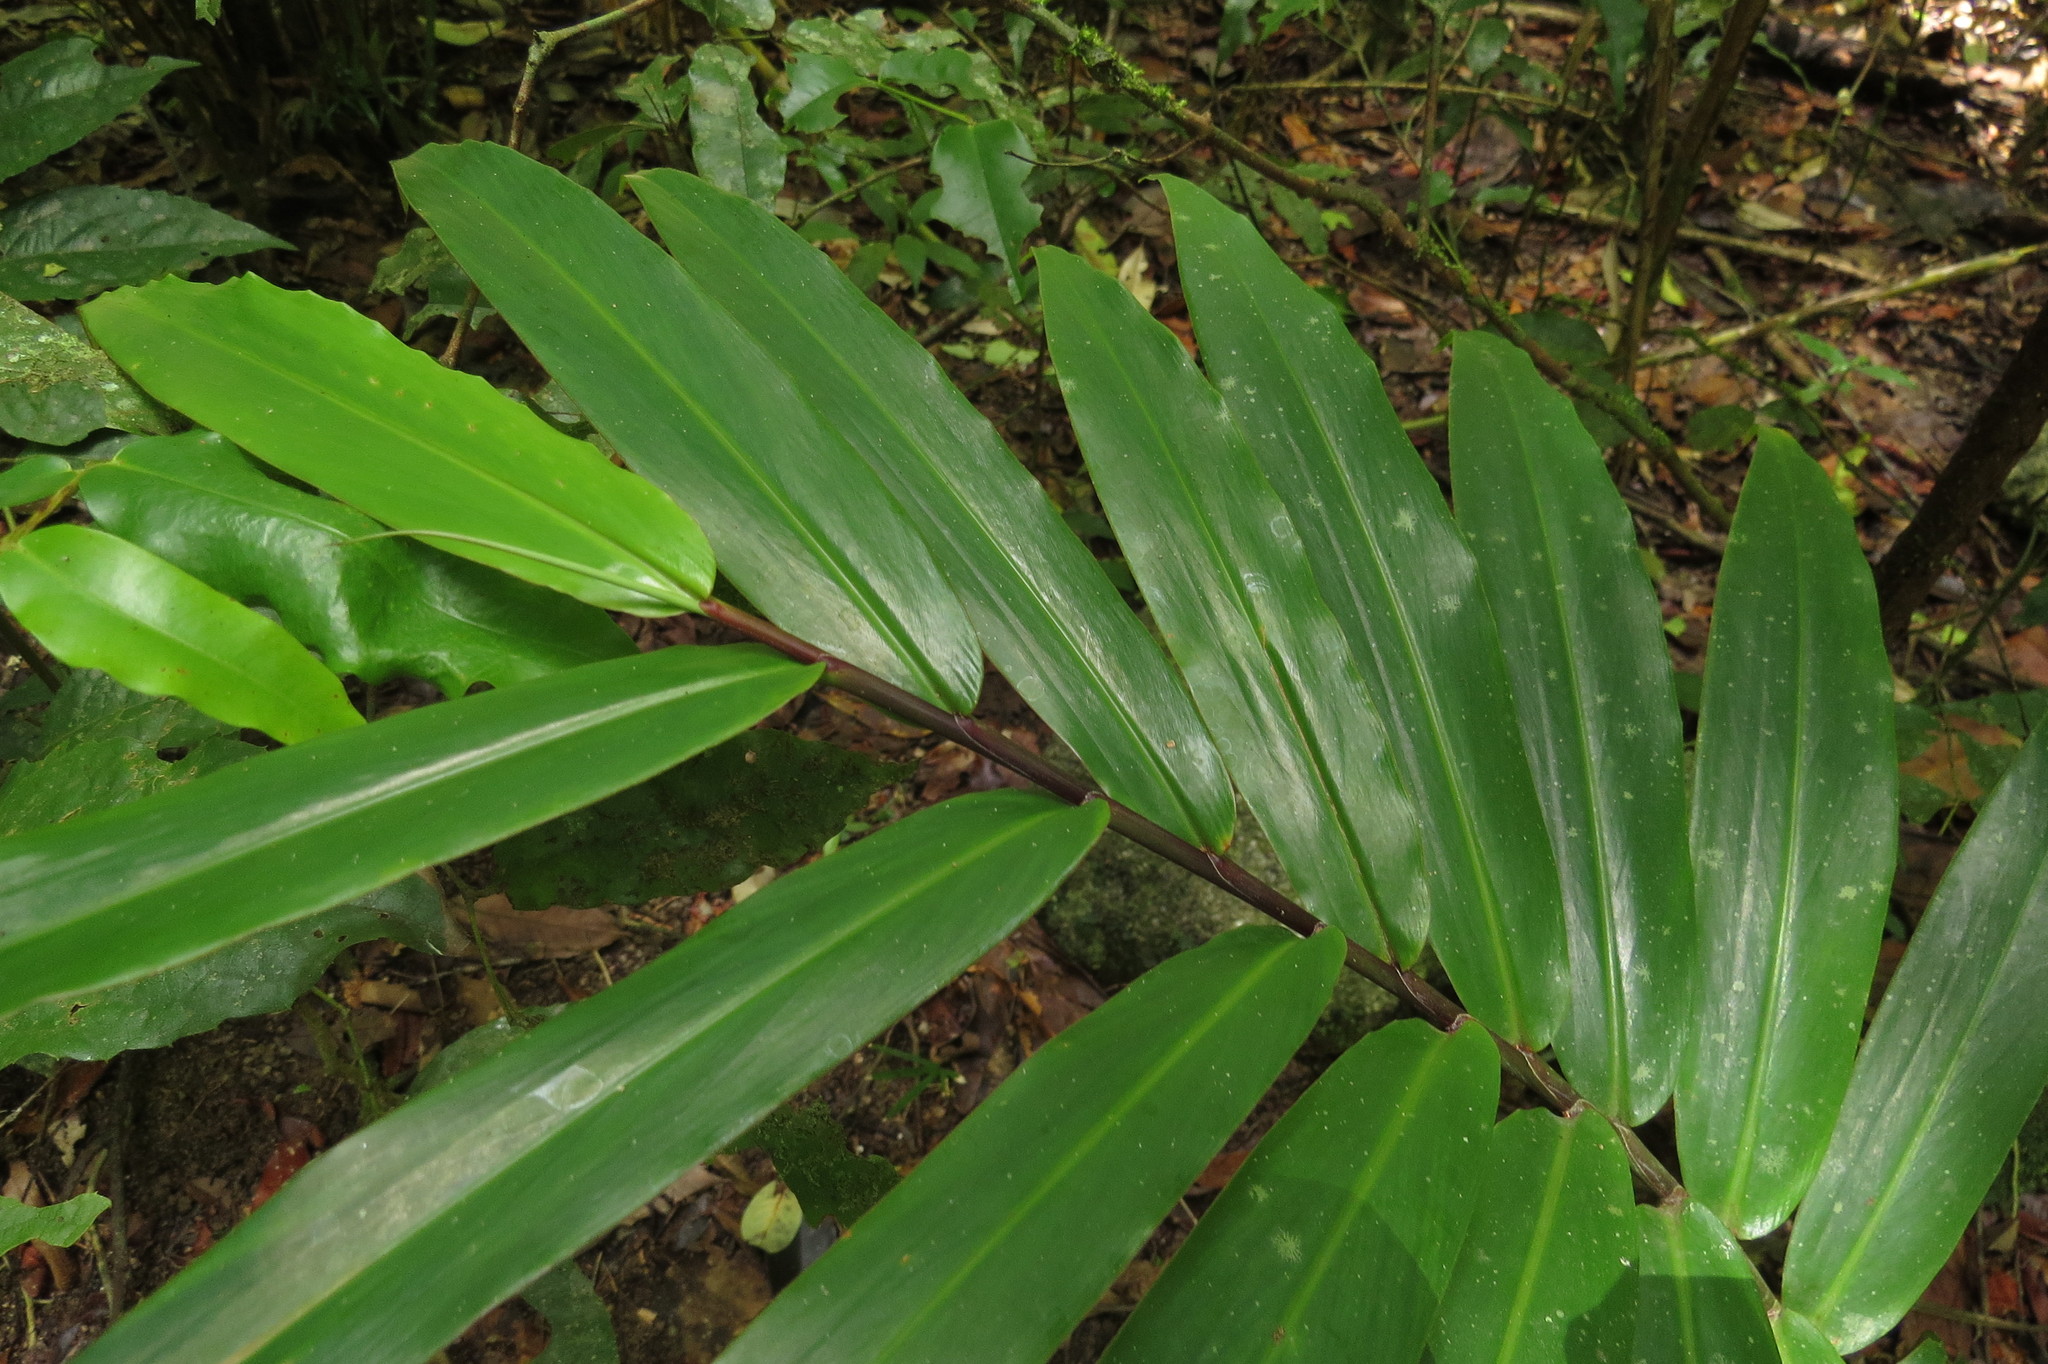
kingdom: Plantae
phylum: Tracheophyta
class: Liliopsida
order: Zingiberales
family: Zingiberaceae
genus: Alpinia
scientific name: Alpinia modesta
